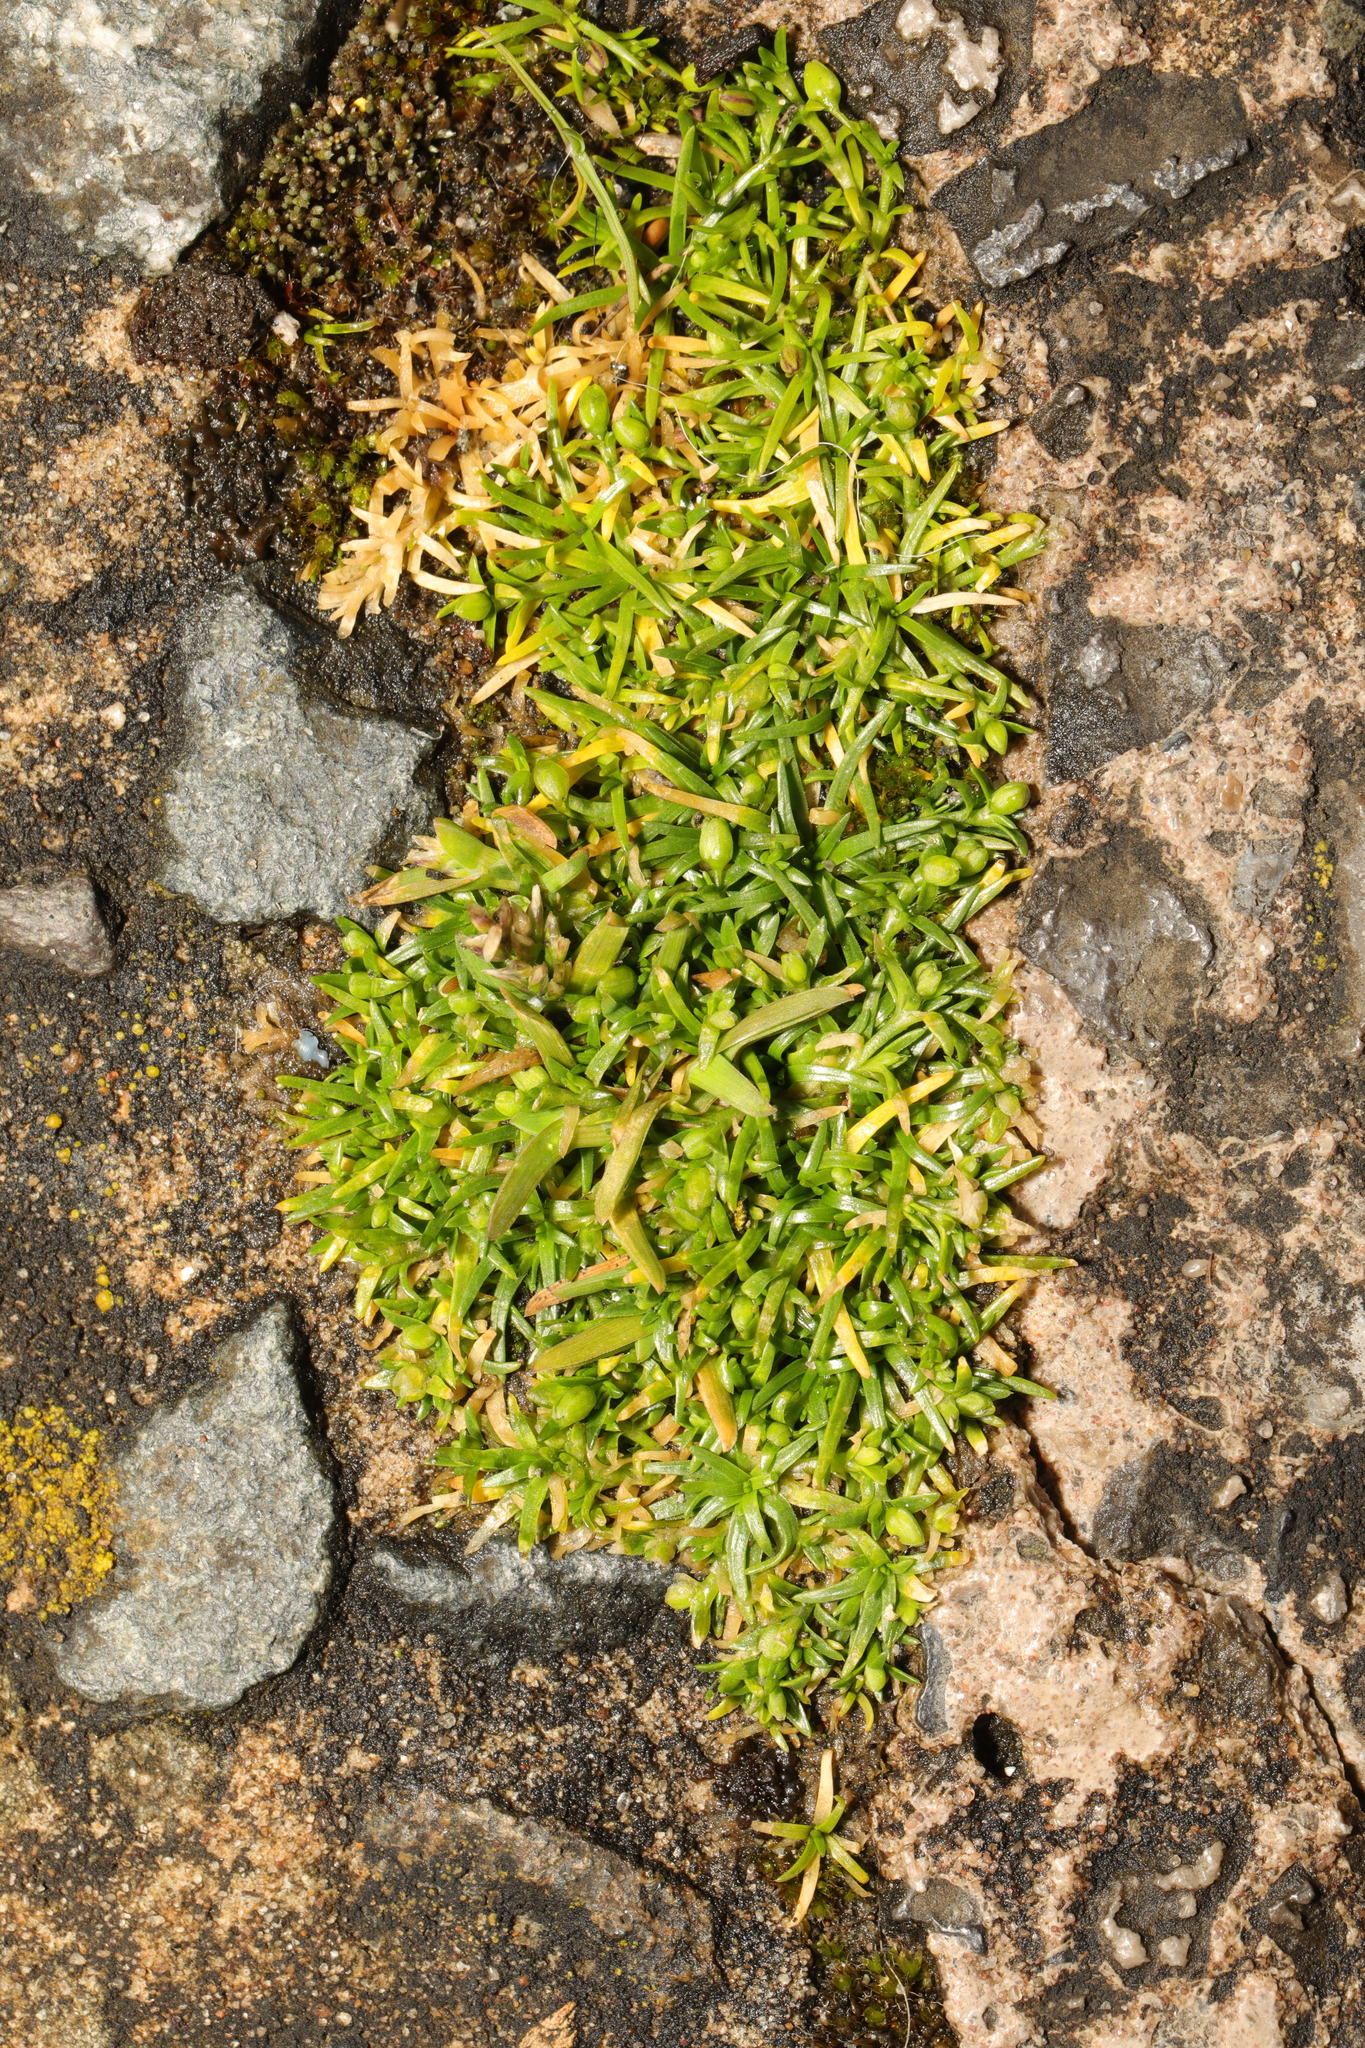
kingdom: Plantae
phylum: Tracheophyta
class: Magnoliopsida
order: Caryophyllales
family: Caryophyllaceae
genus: Sagina
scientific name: Sagina procumbens
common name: Procumbent pearlwort
